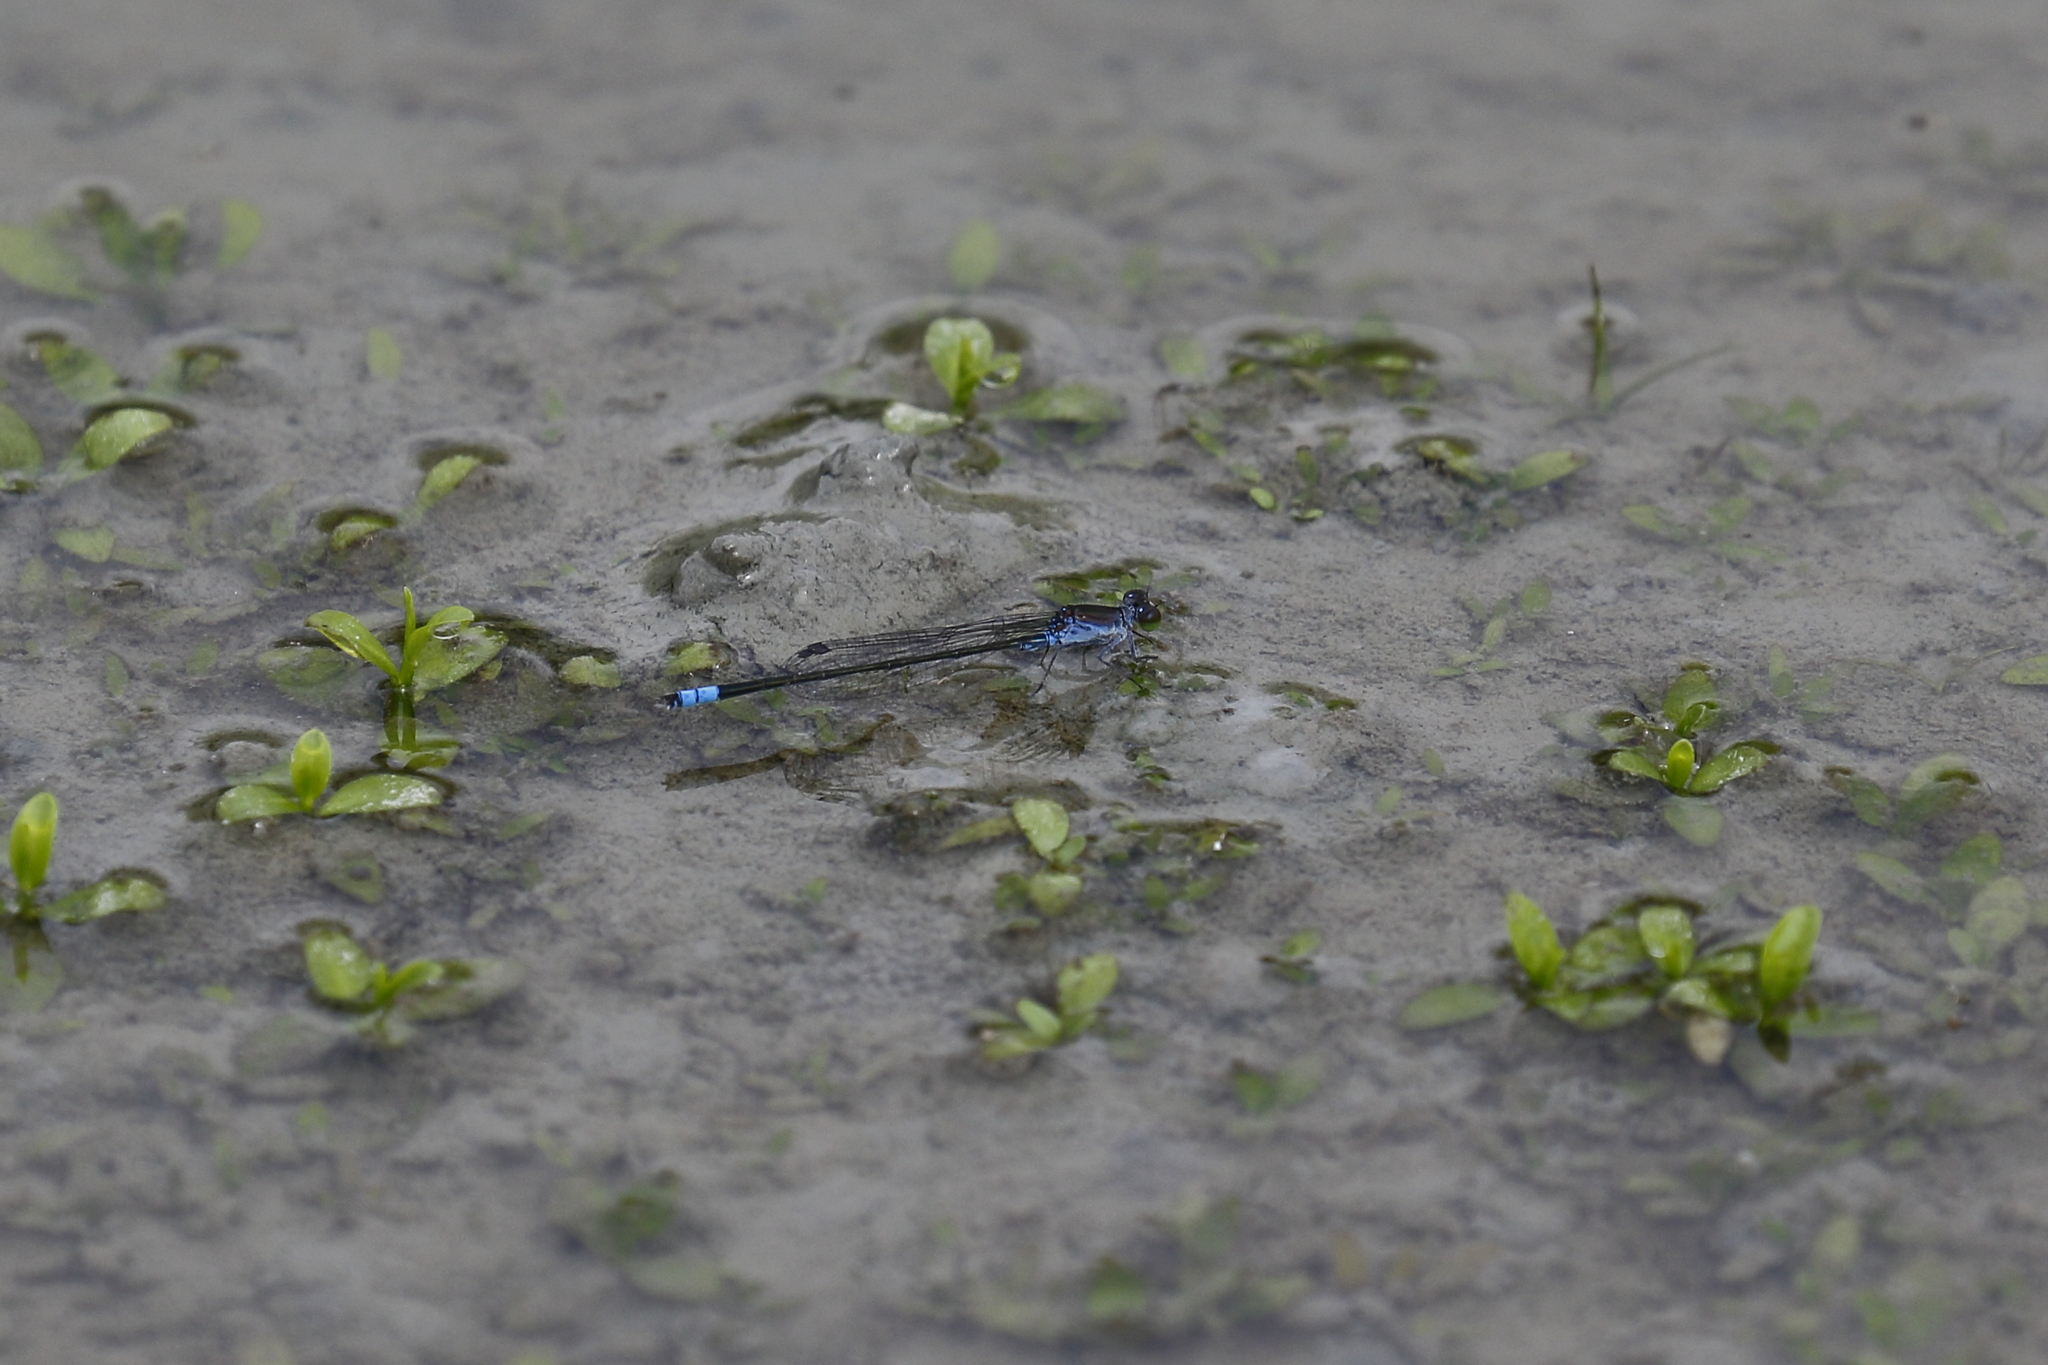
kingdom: Animalia
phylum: Arthropoda
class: Insecta
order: Odonata
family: Coenagrionidae
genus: Paracercion
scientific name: Paracercion calamorum
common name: Dusky lilysquatter
